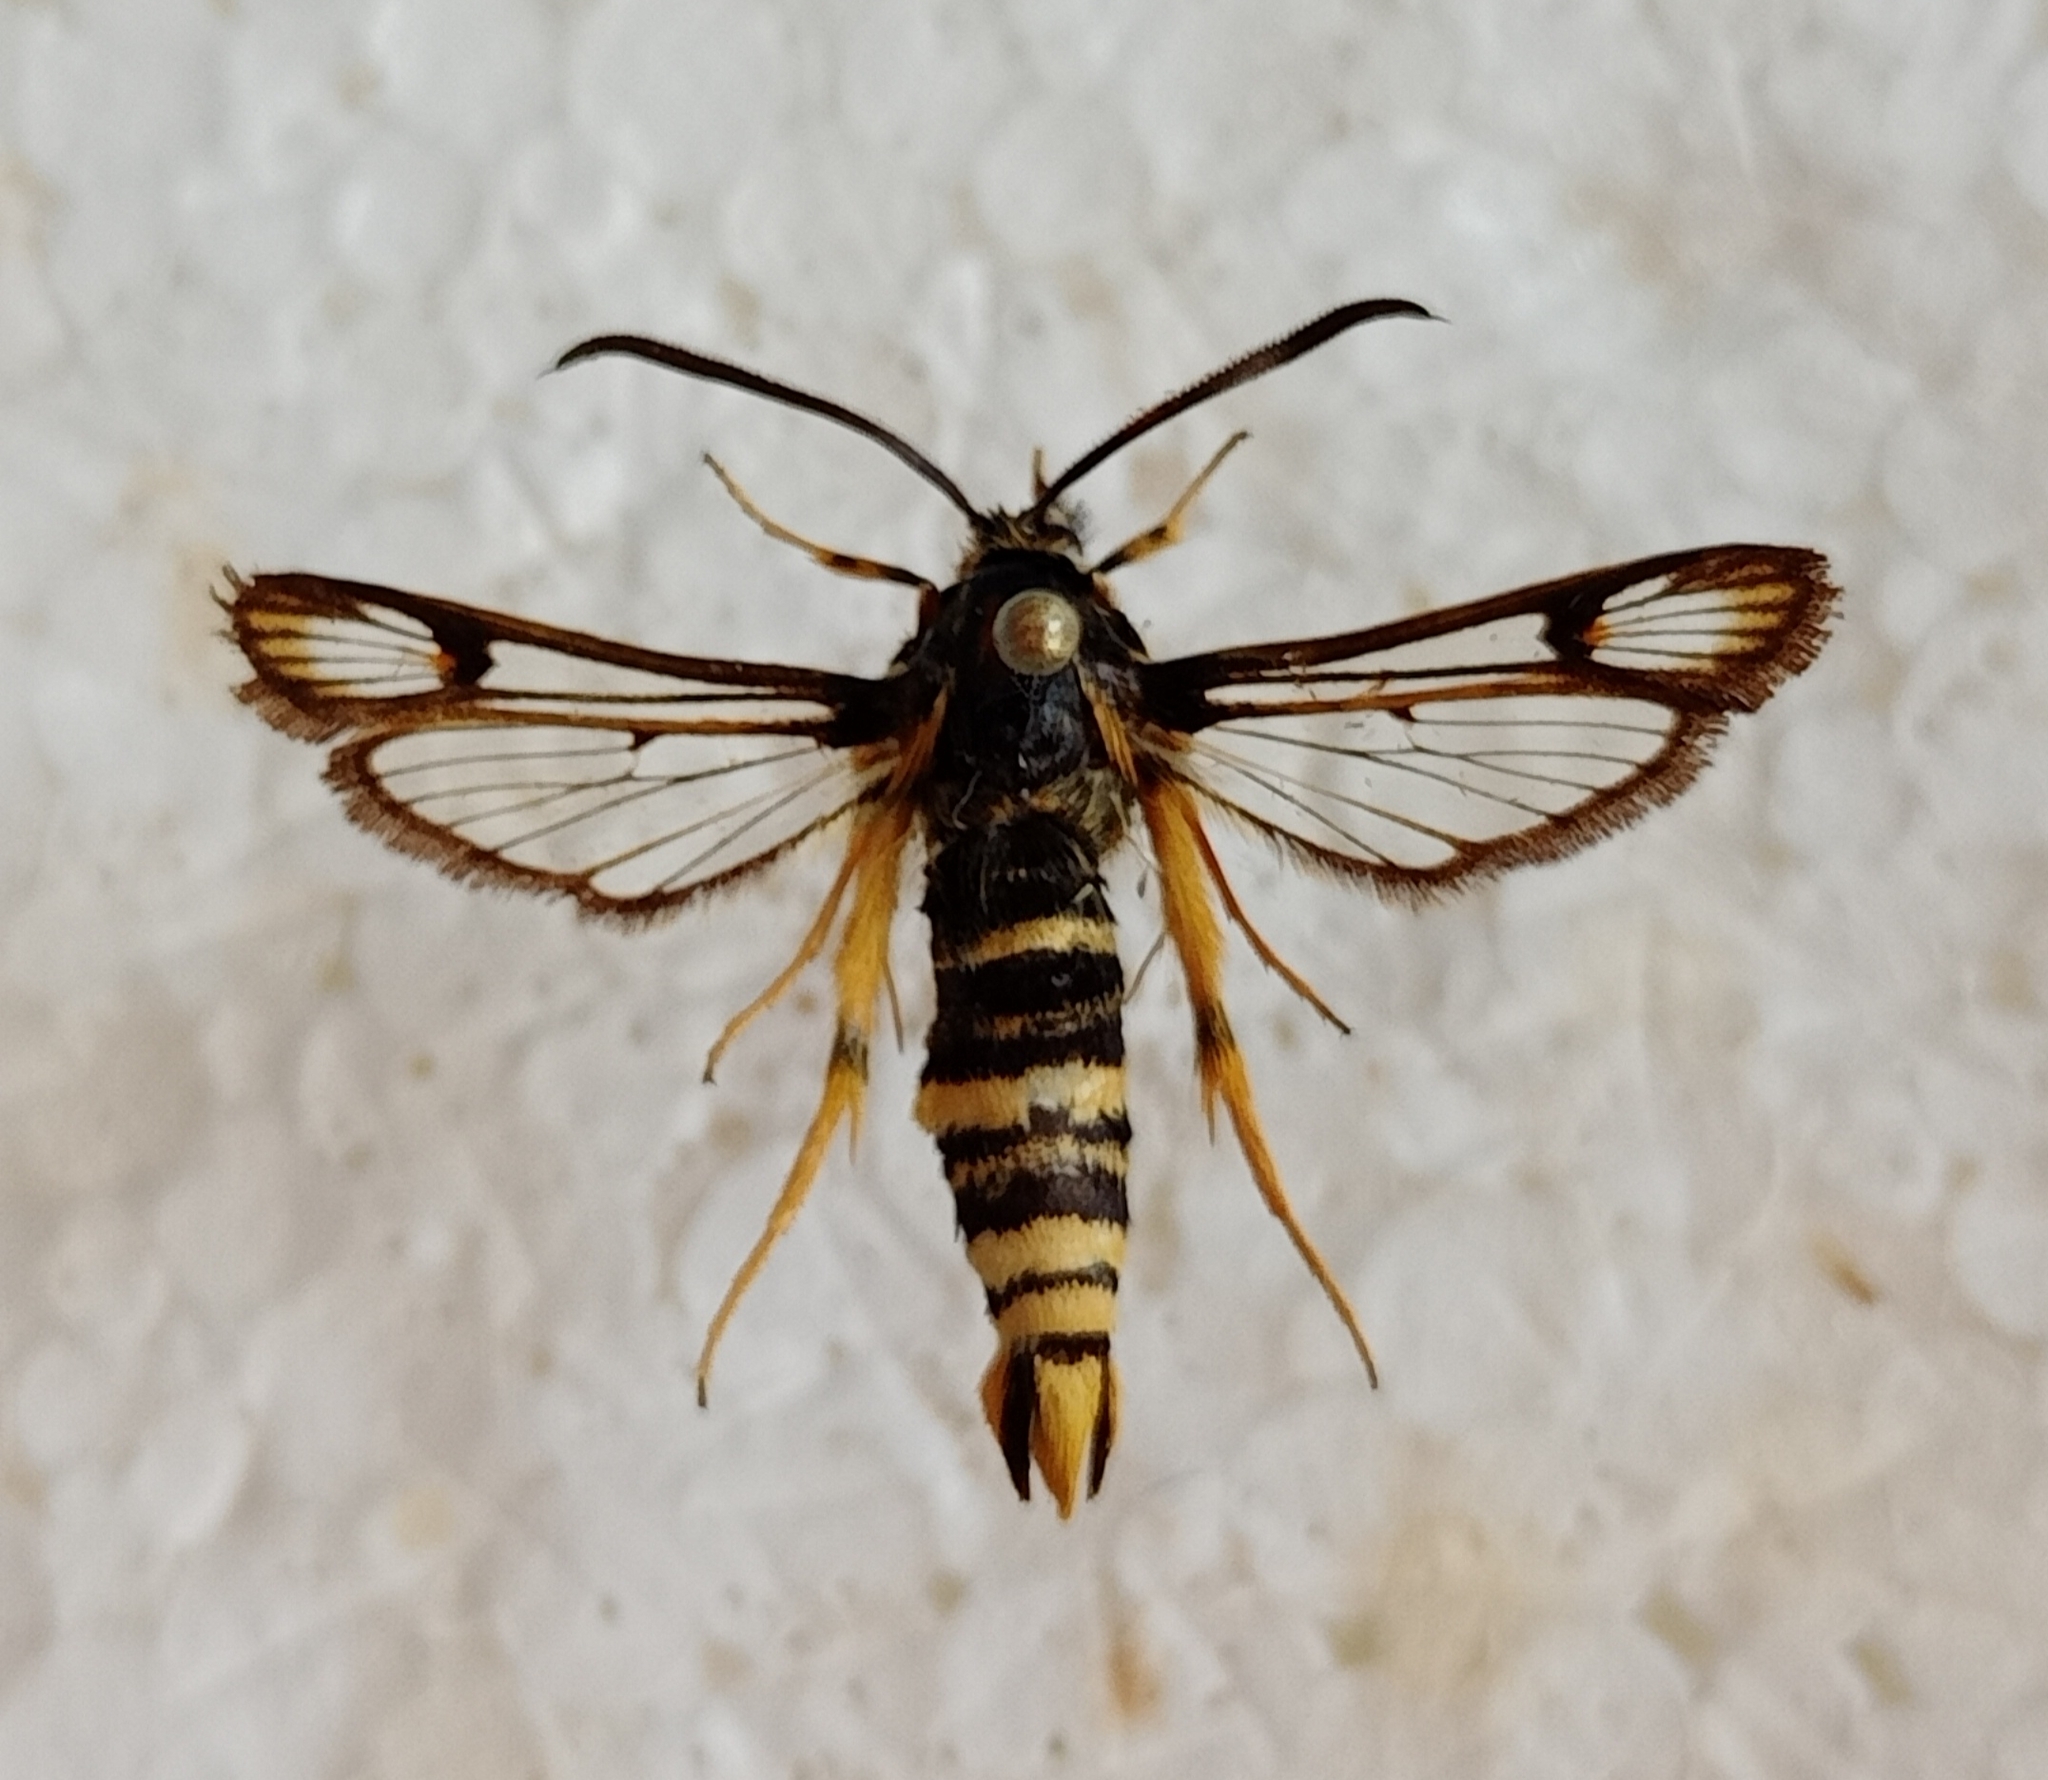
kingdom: Animalia
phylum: Arthropoda
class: Insecta
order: Lepidoptera
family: Sesiidae
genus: Bembecia
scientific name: Bembecia megillaeformis
